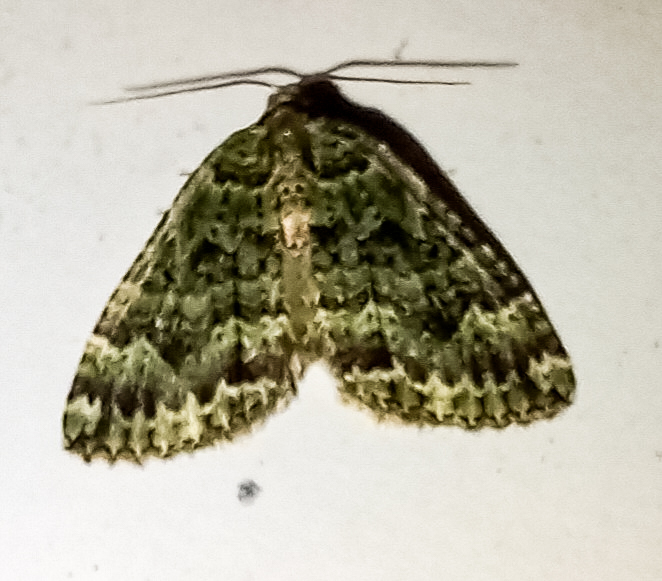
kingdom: Animalia
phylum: Arthropoda
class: Insecta
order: Lepidoptera
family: Geometridae
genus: Austrocidaria
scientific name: Austrocidaria callichlora
